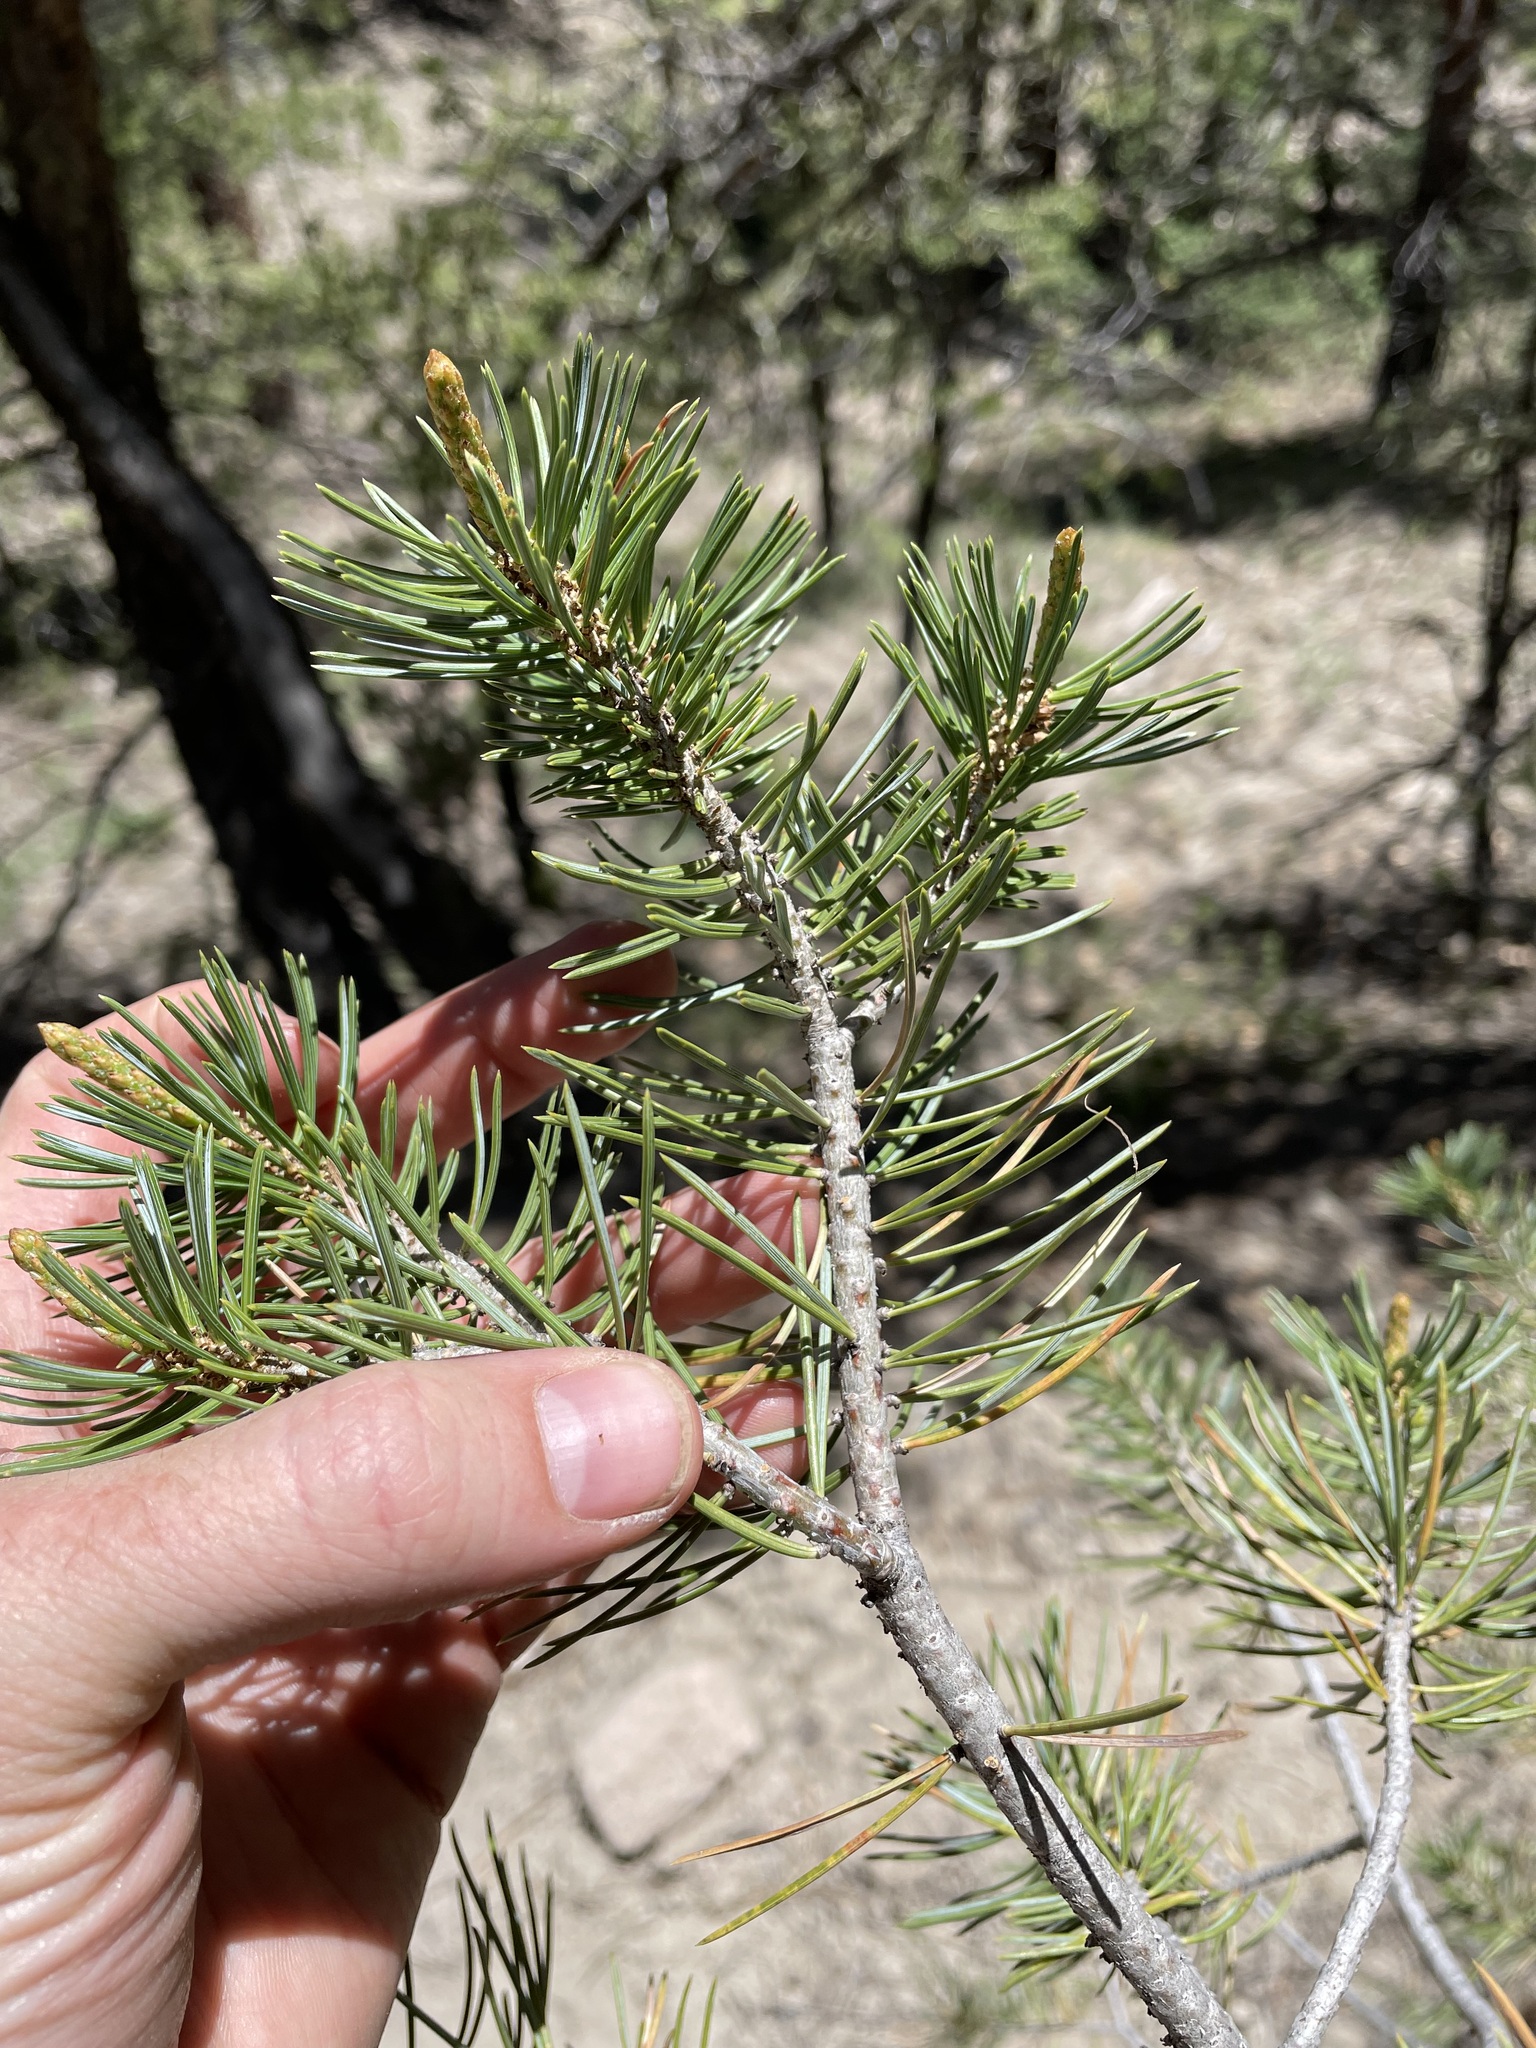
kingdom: Plantae
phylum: Tracheophyta
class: Pinopsida
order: Pinales
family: Pinaceae
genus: Pinus
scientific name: Pinus edulis
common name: Colorado pinyon
